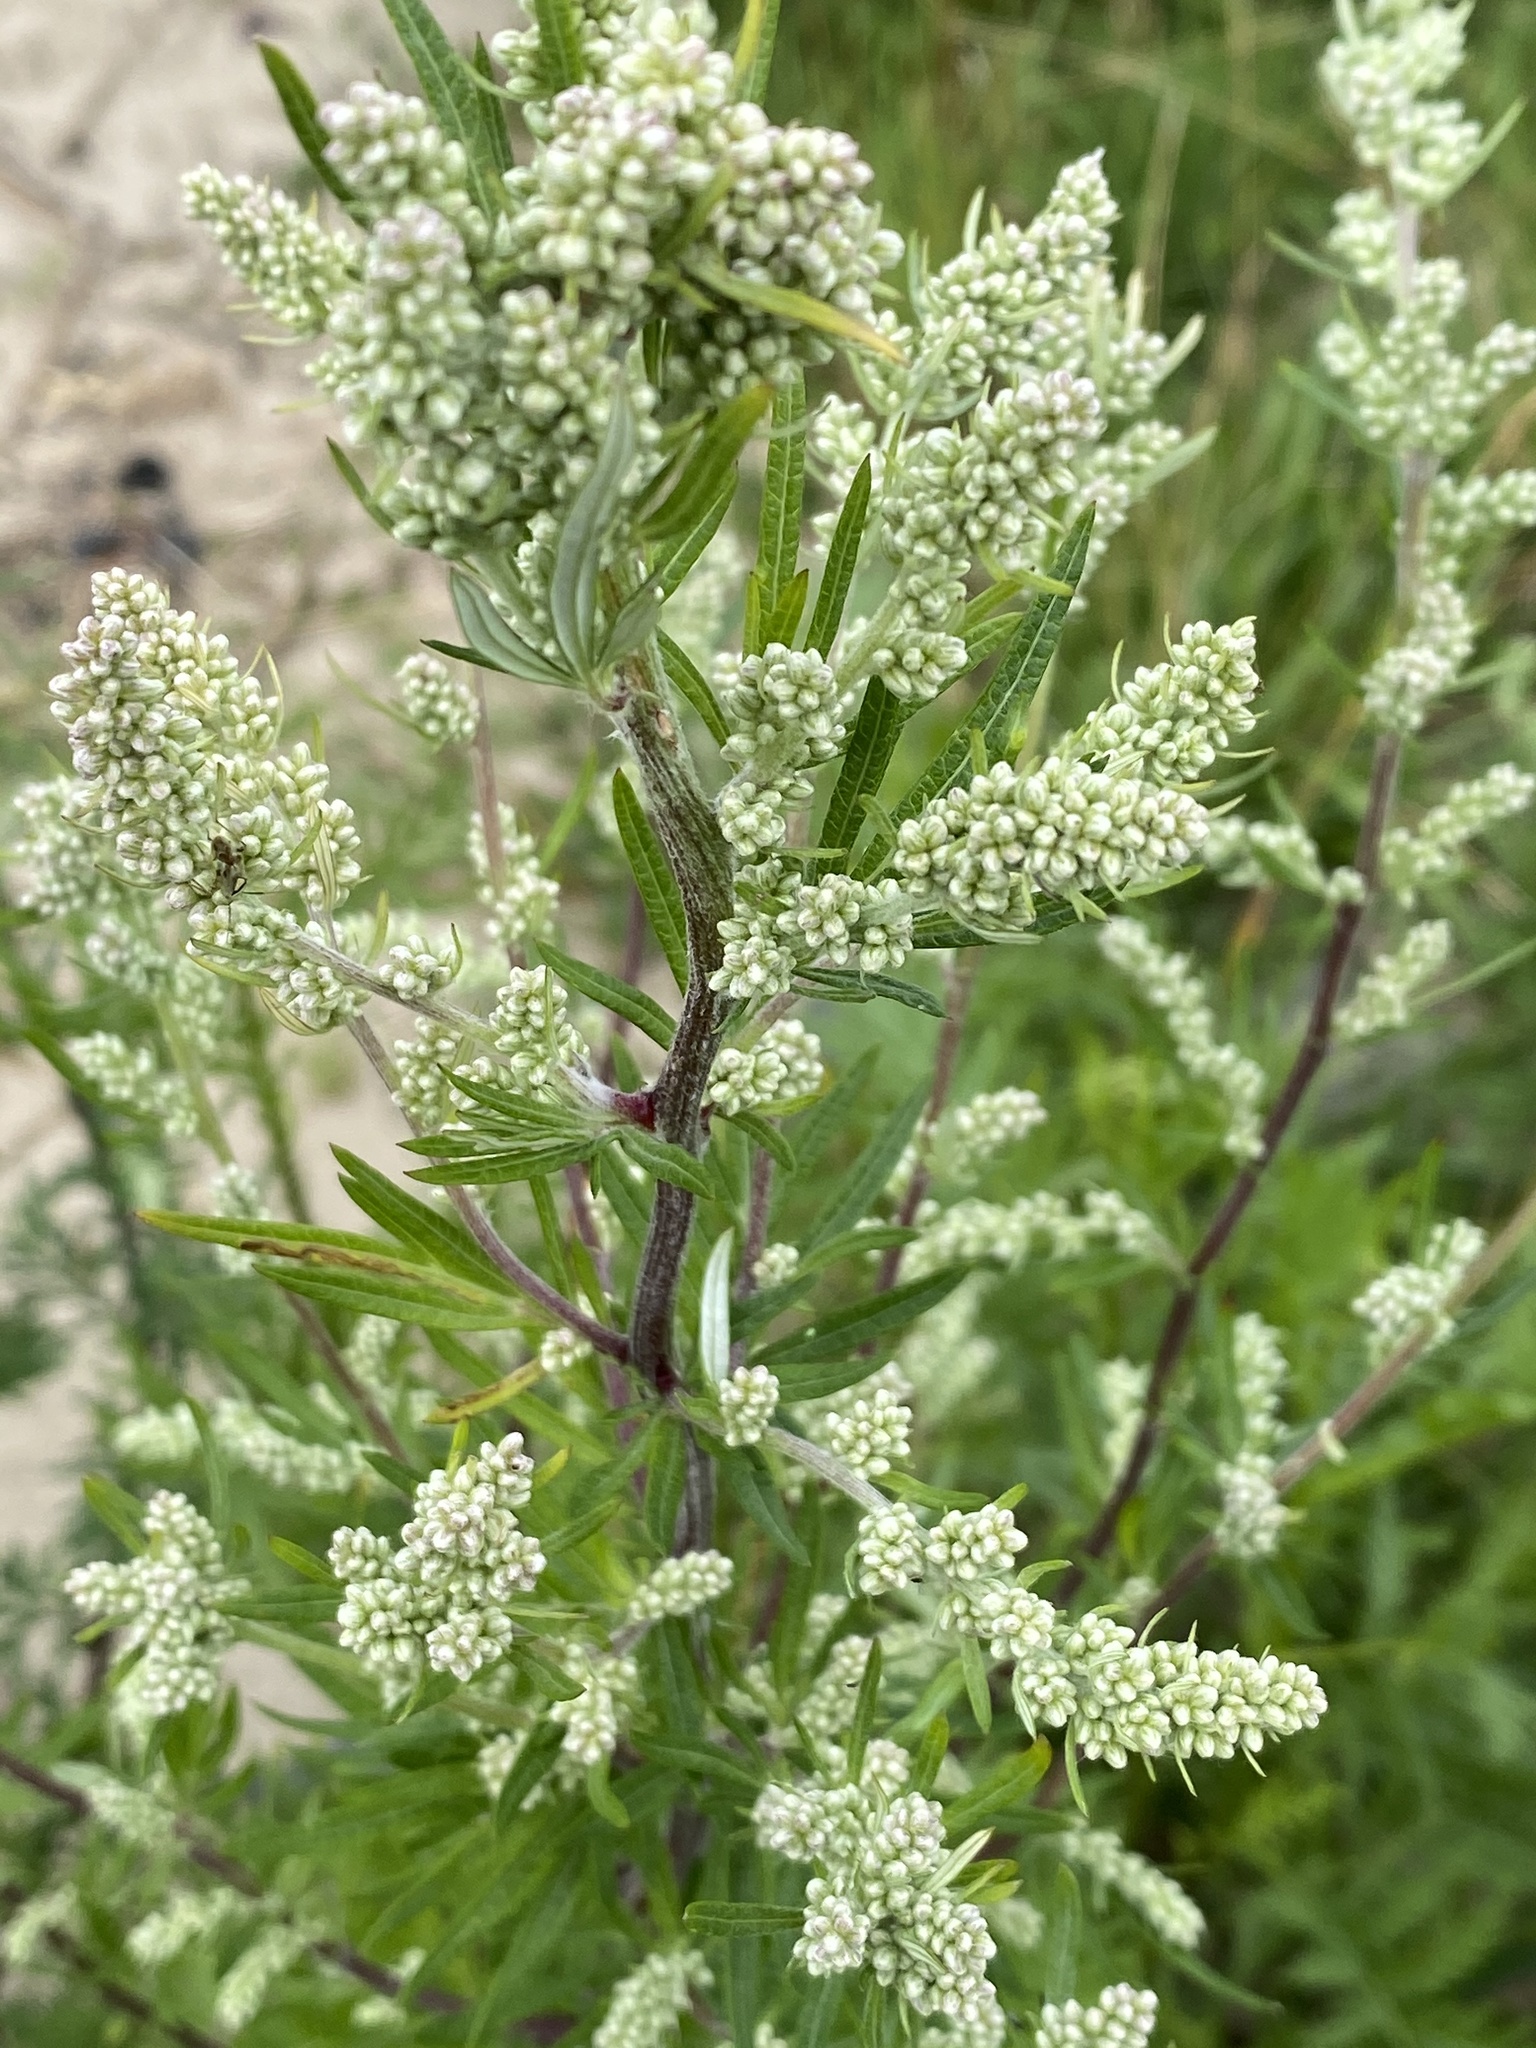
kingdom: Plantae
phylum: Tracheophyta
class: Magnoliopsida
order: Asterales
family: Asteraceae
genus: Artemisia
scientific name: Artemisia vulgaris
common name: Mugwort
